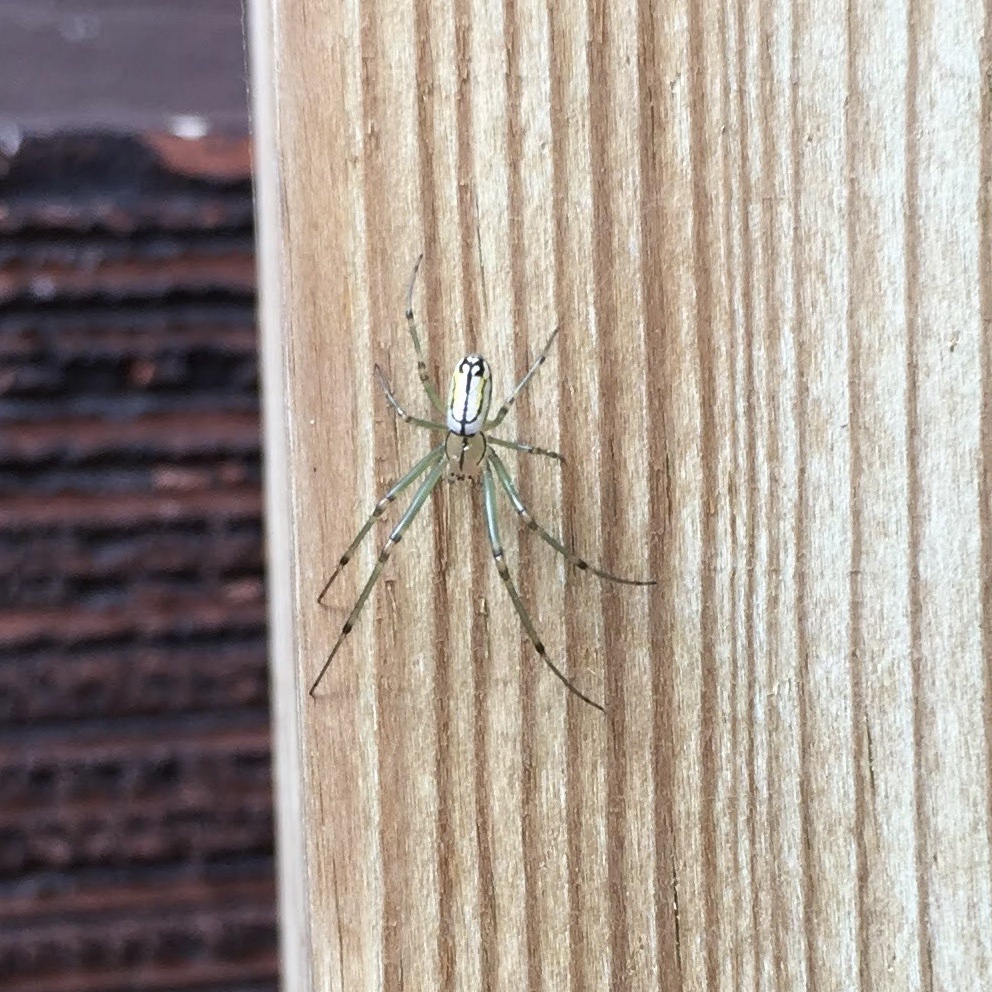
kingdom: Animalia
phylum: Arthropoda
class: Arachnida
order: Araneae
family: Tetragnathidae
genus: Leucauge
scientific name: Leucauge venusta
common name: Longjawed orb weavers
